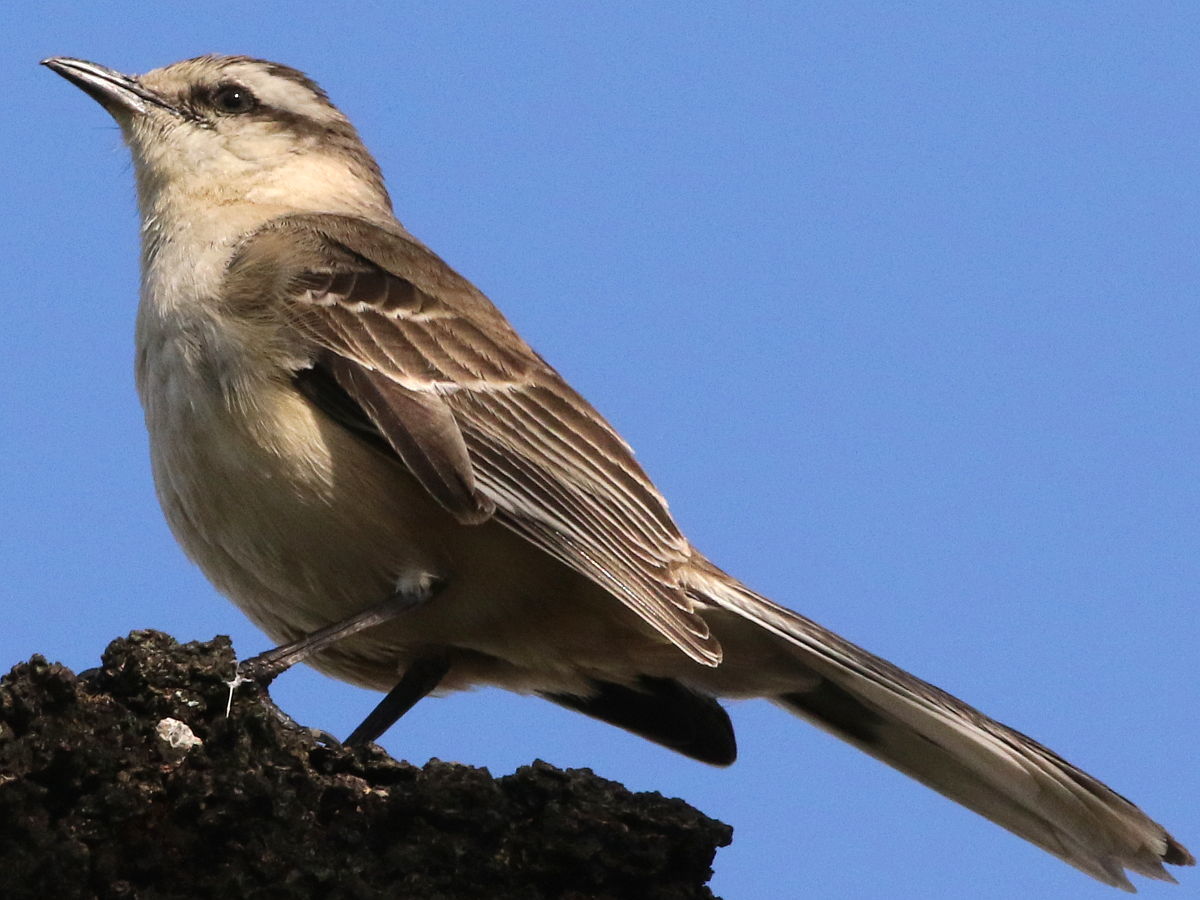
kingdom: Animalia
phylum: Chordata
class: Aves
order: Passeriformes
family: Mimidae
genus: Mimus
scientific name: Mimus saturninus
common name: Chalk-browed mockingbird
